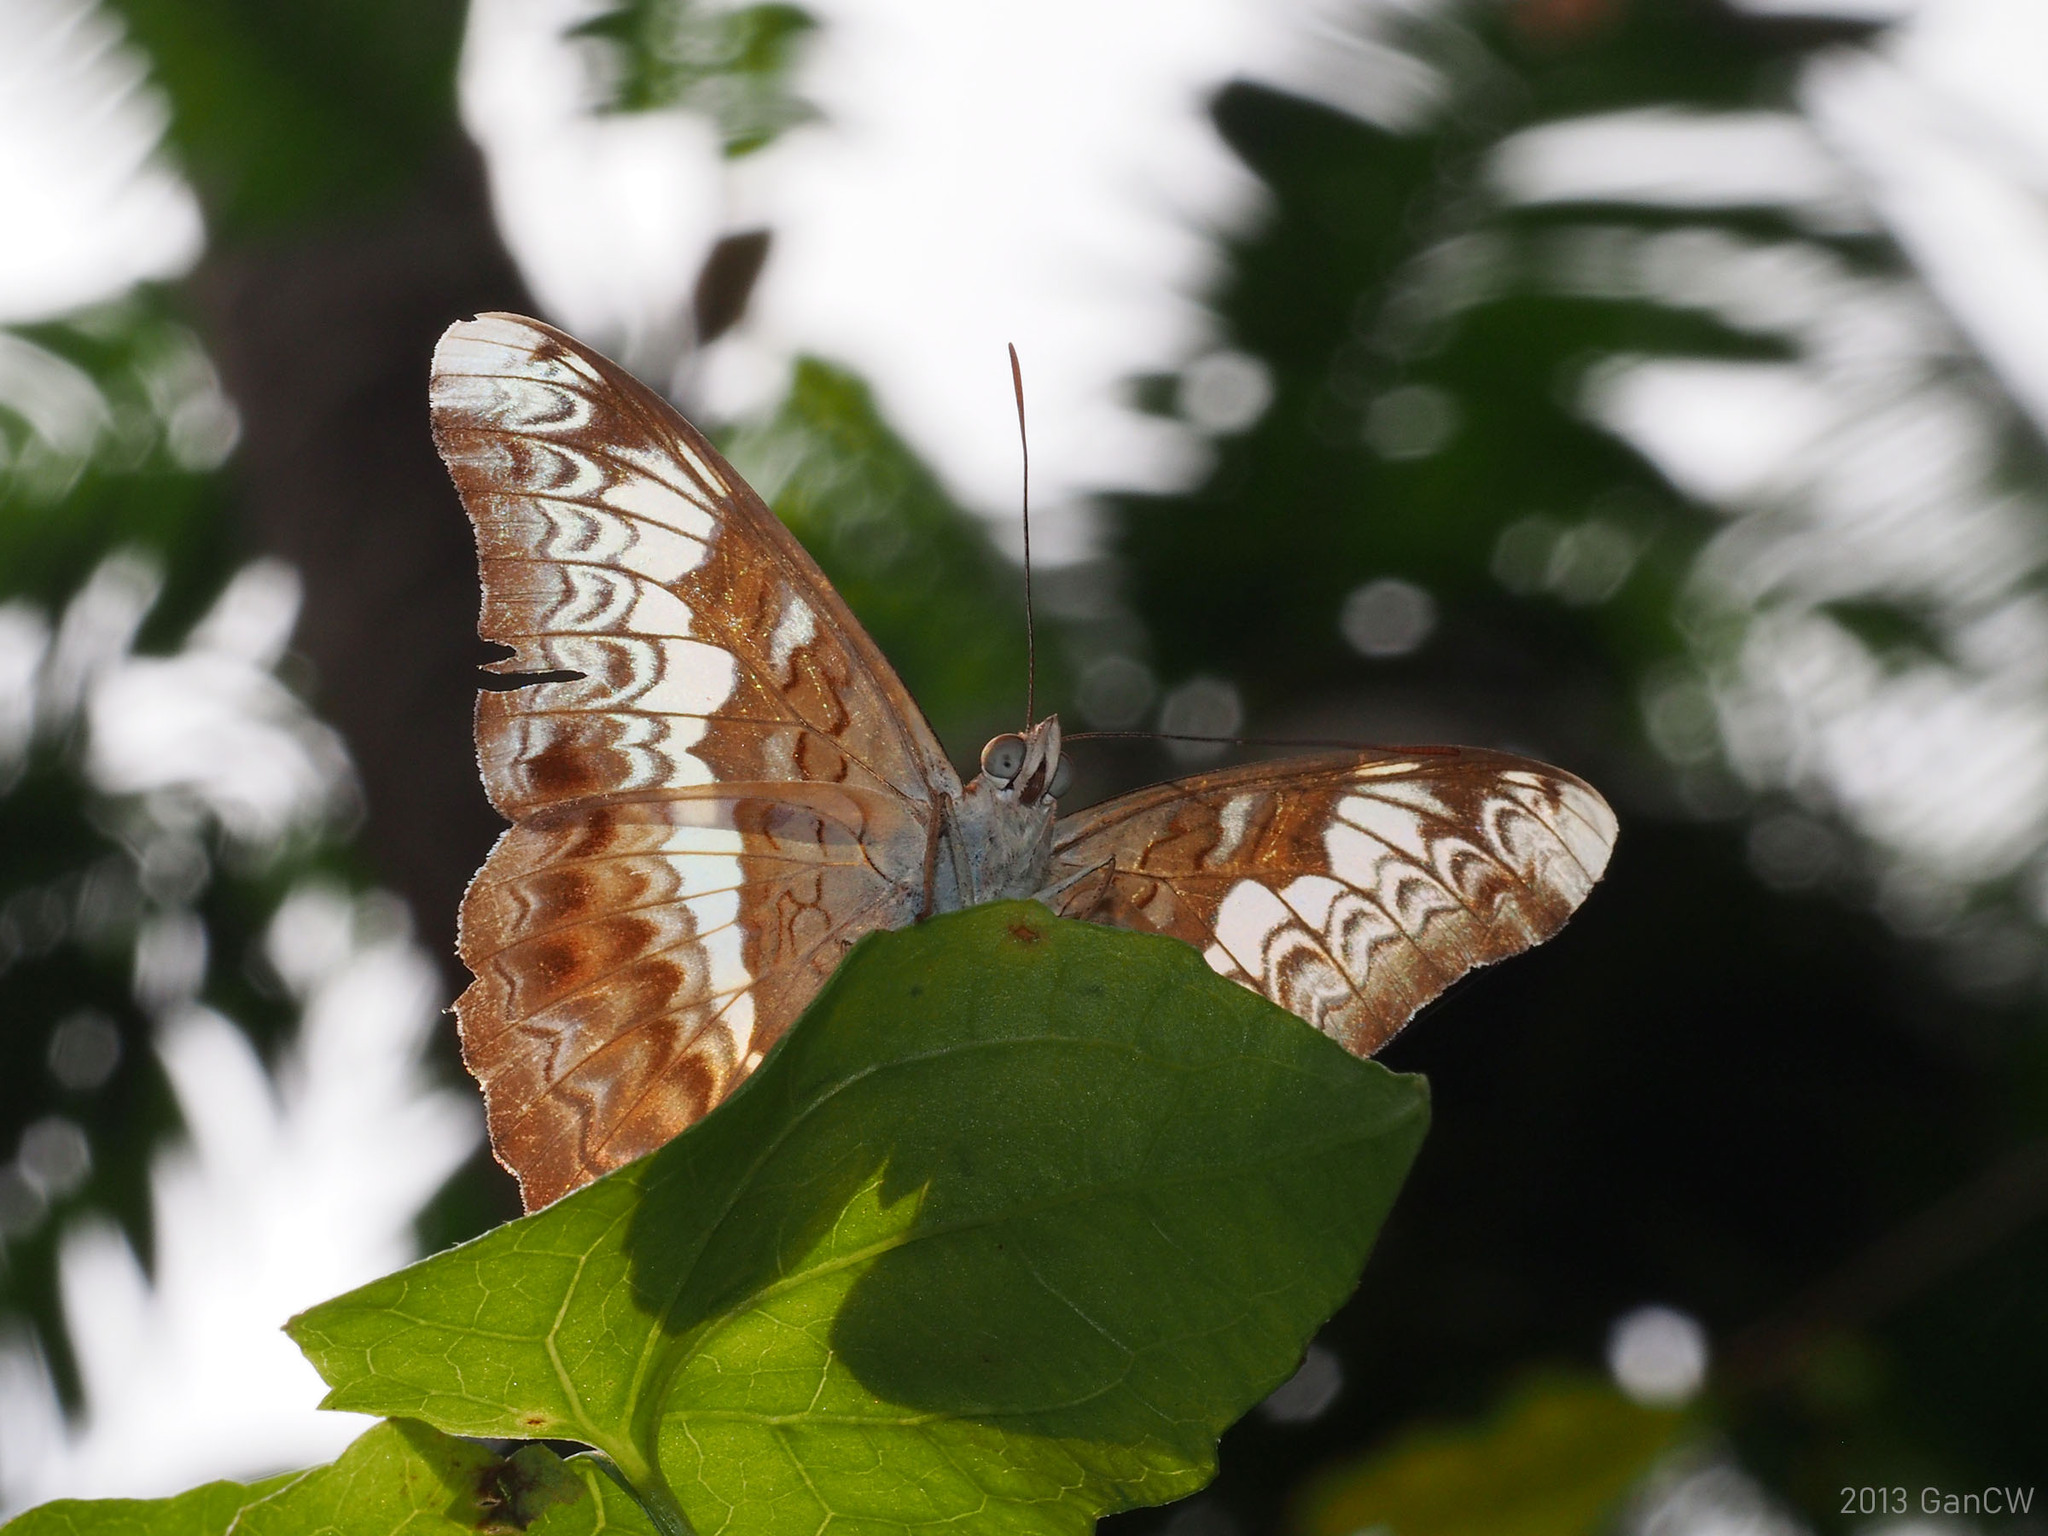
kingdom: Animalia
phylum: Arthropoda
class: Insecta
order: Lepidoptera
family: Nymphalidae
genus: Lebadea
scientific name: Lebadea martha
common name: Knight
